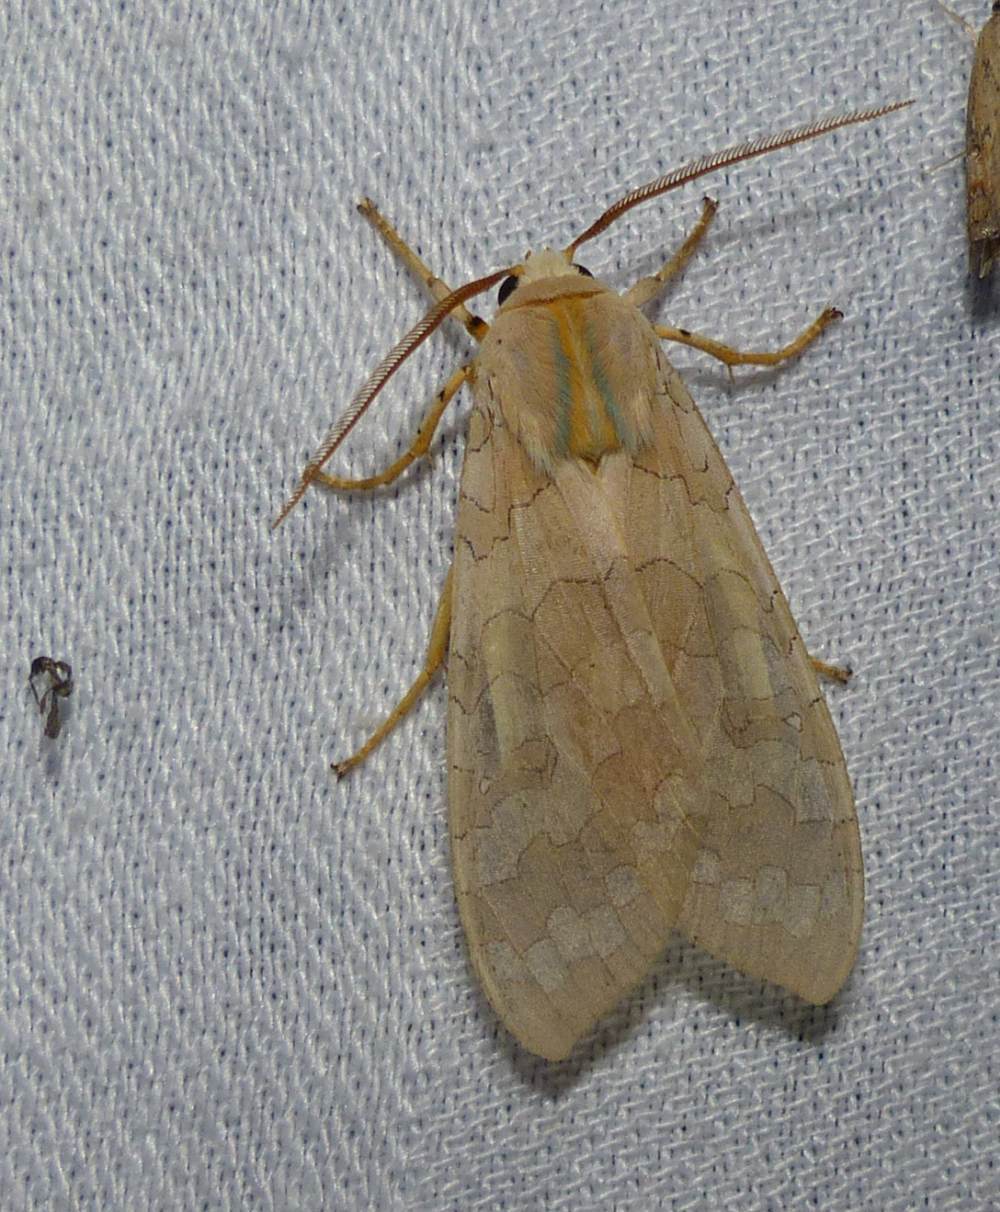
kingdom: Animalia
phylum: Arthropoda
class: Insecta
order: Lepidoptera
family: Erebidae
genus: Halysidota
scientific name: Halysidota tessellaris
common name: Banded tussock moth
